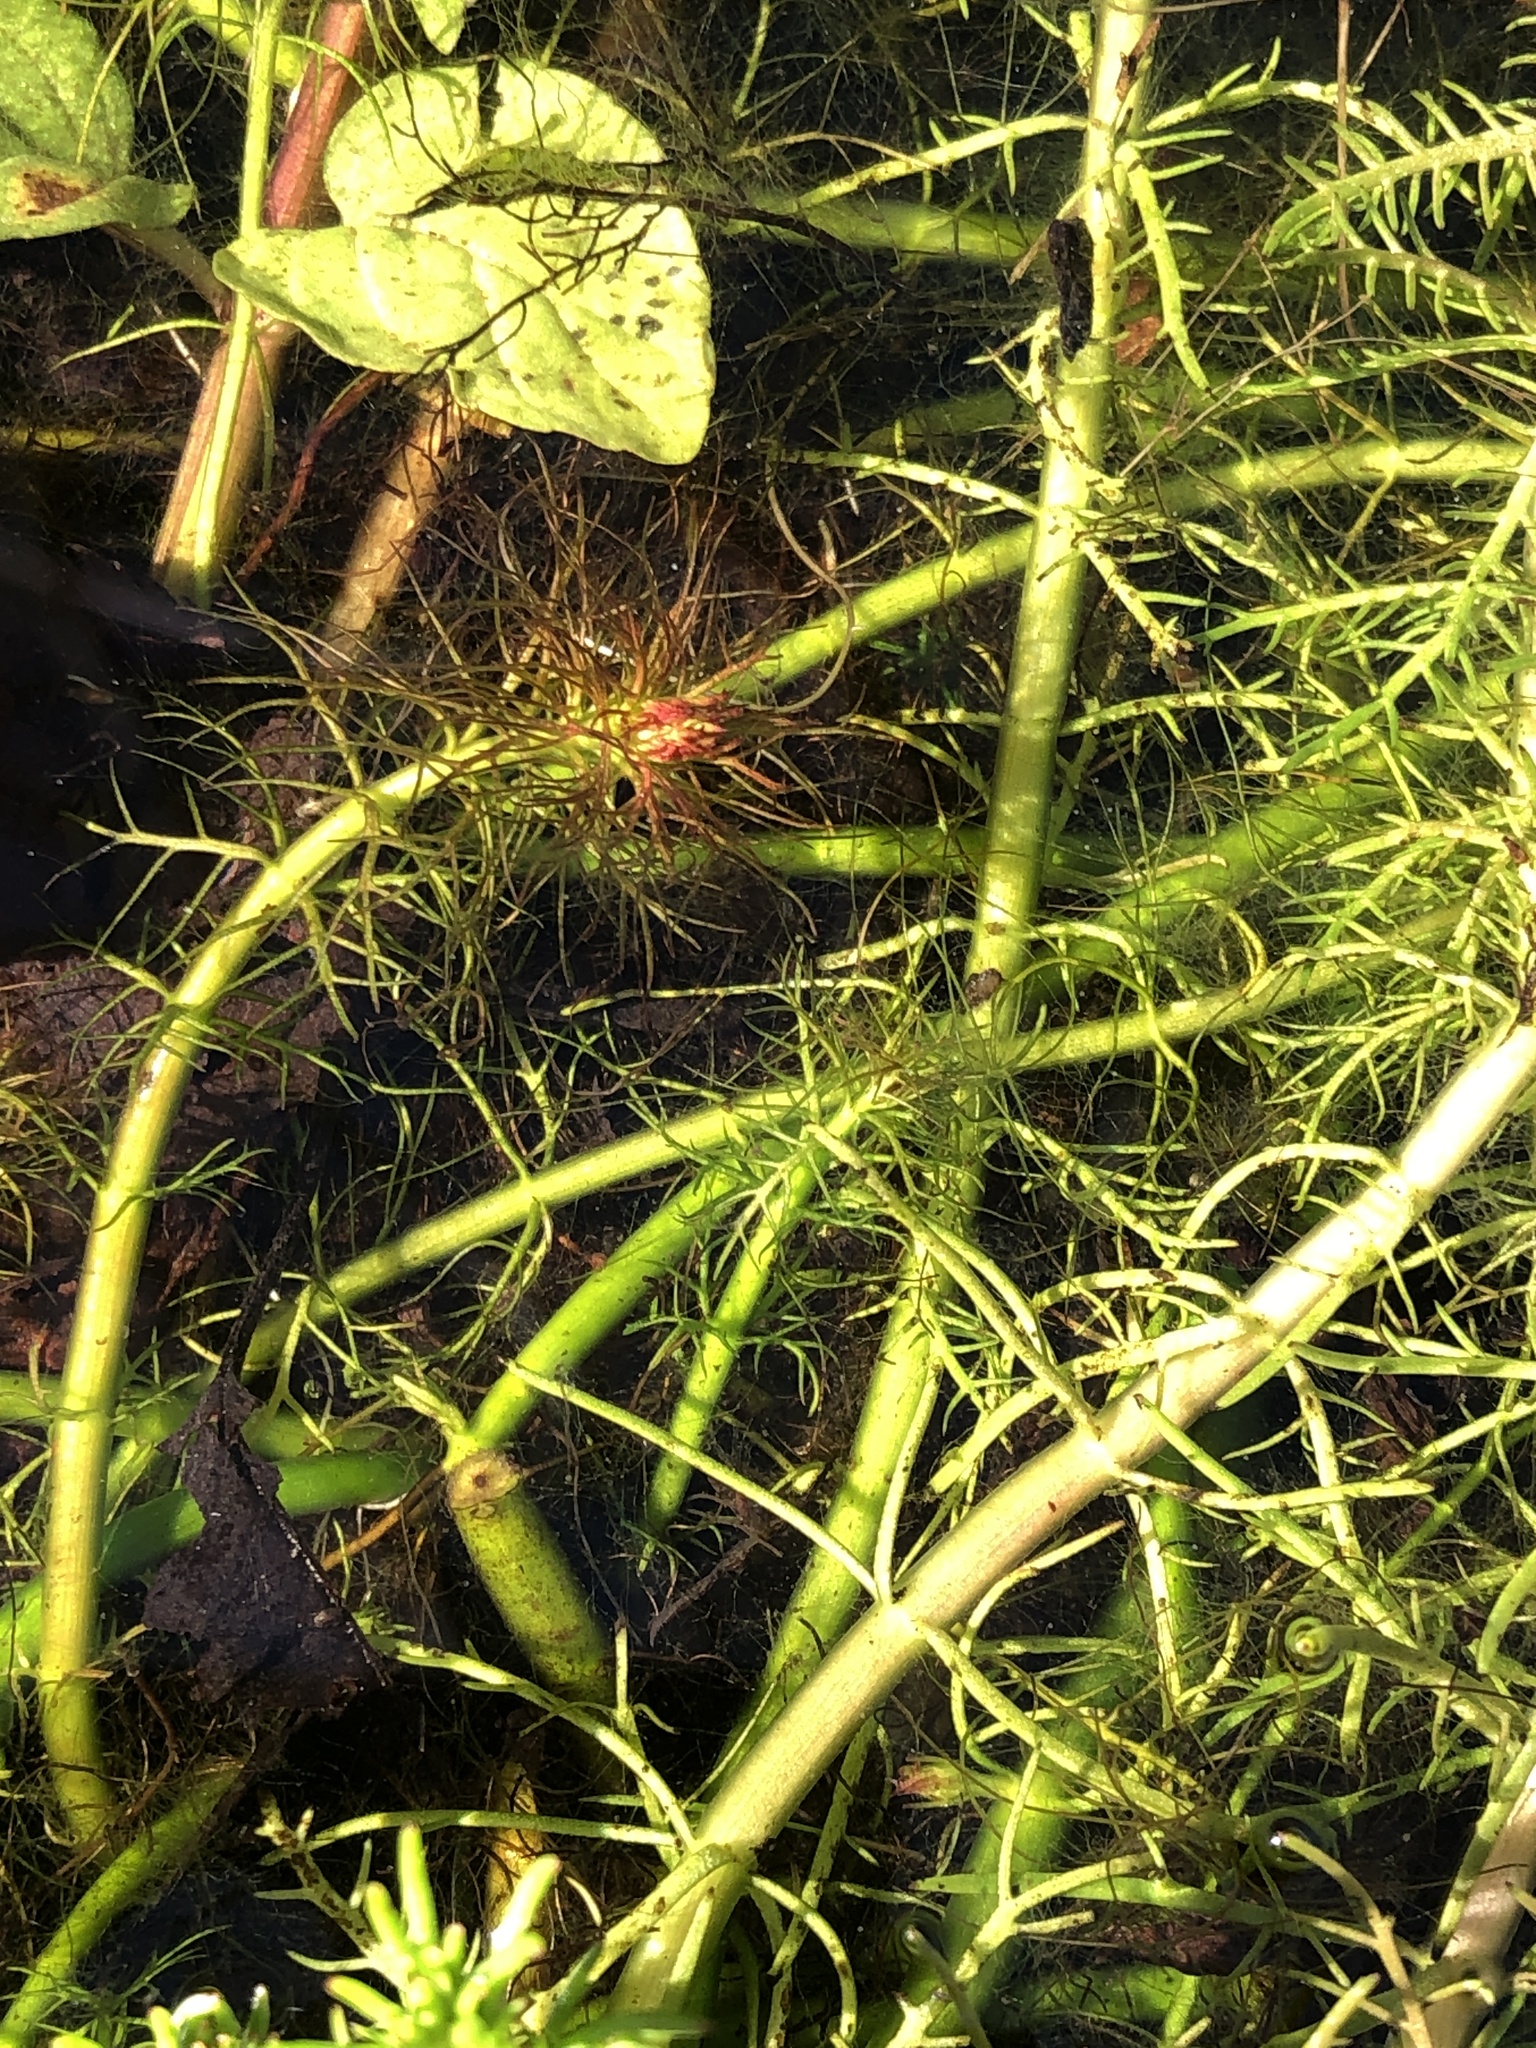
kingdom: Plantae
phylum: Tracheophyta
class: Magnoliopsida
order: Saxifragales
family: Haloragaceae
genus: Myriophyllum
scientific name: Myriophyllum propinquum
